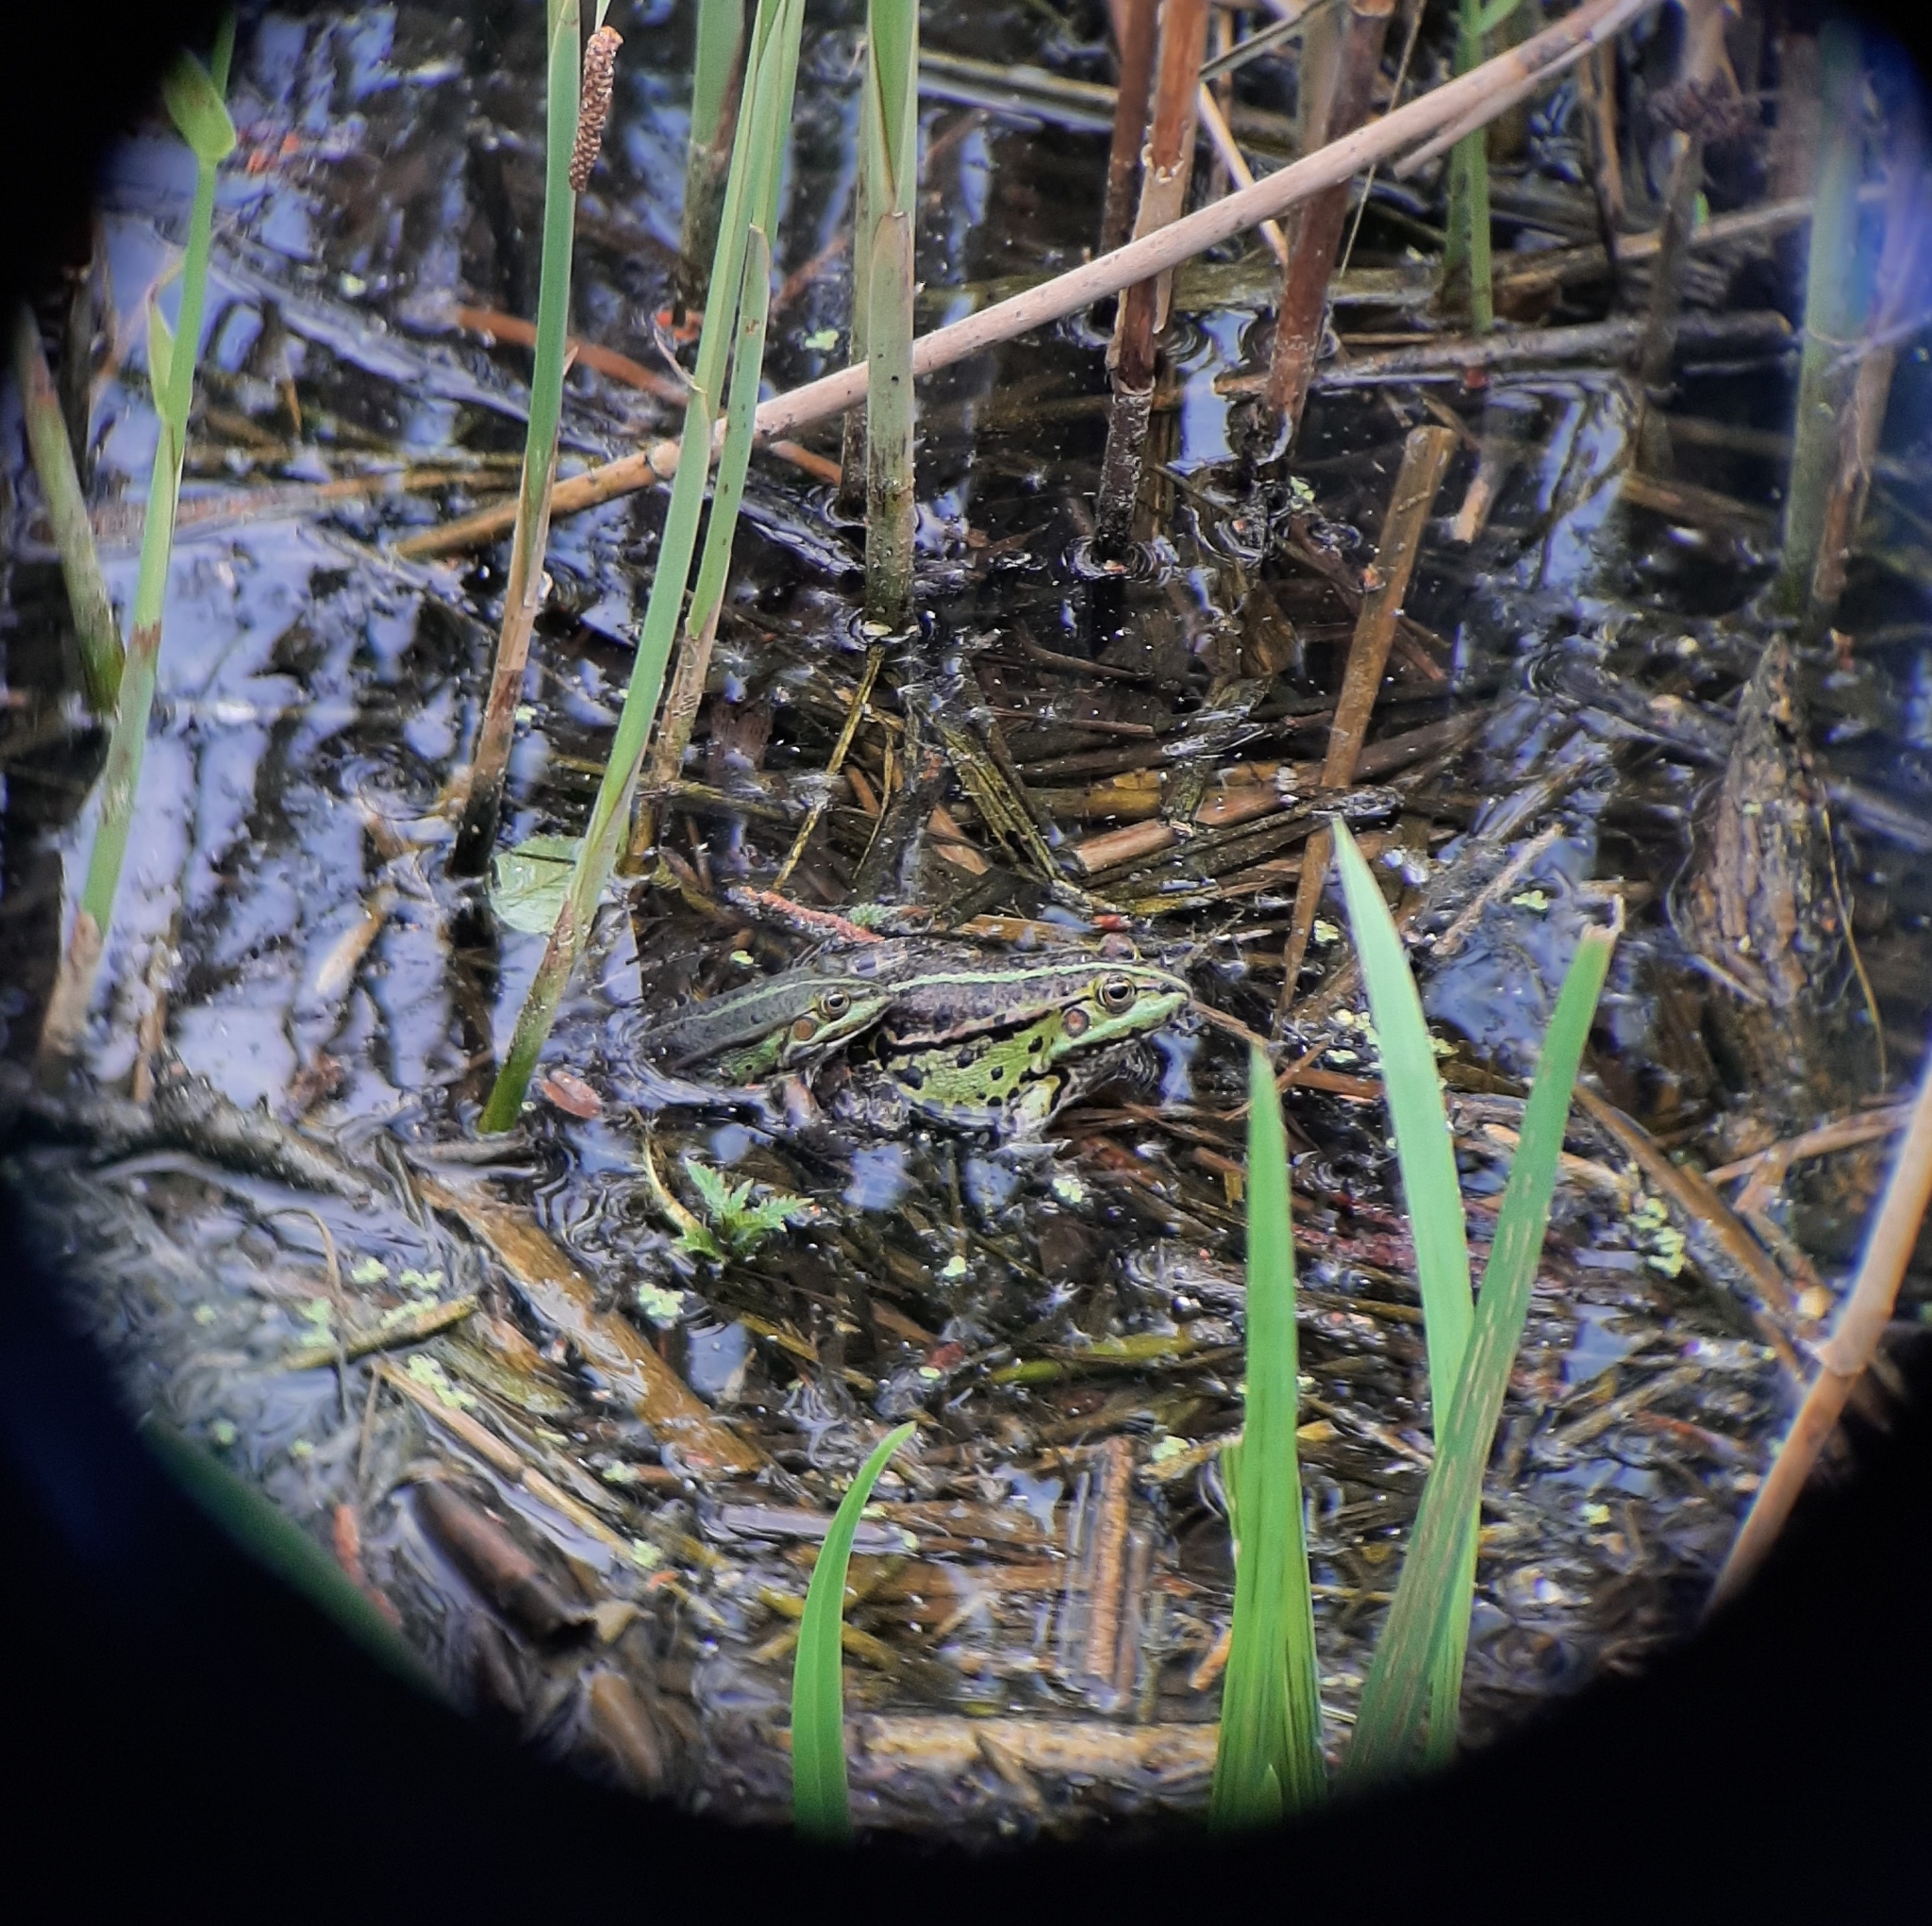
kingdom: Animalia
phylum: Chordata
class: Amphibia
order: Anura
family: Ranidae
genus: Pelophylax
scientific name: Pelophylax
